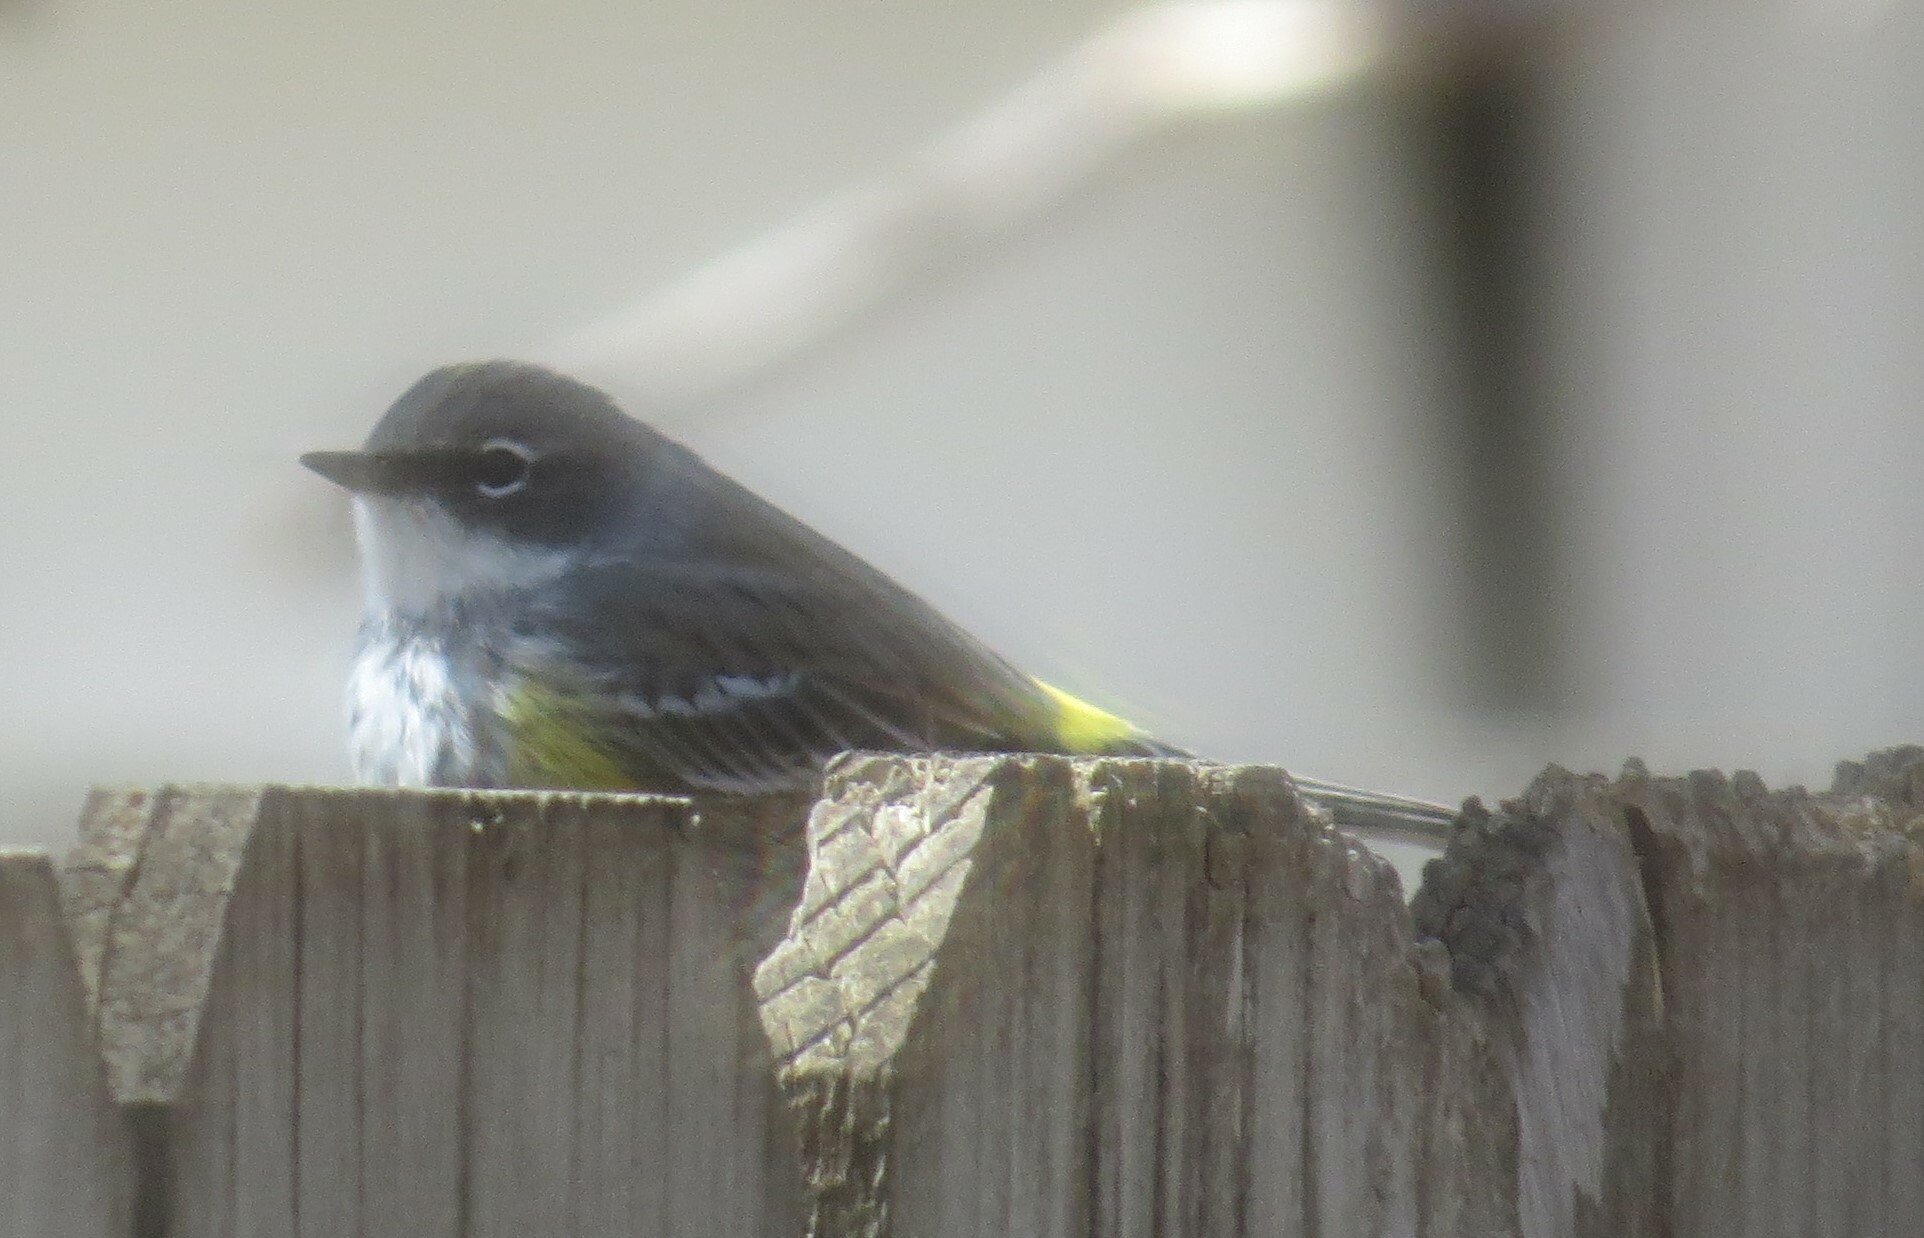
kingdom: Animalia
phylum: Chordata
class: Aves
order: Passeriformes
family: Parulidae
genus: Setophaga
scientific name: Setophaga coronata
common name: Myrtle warbler
